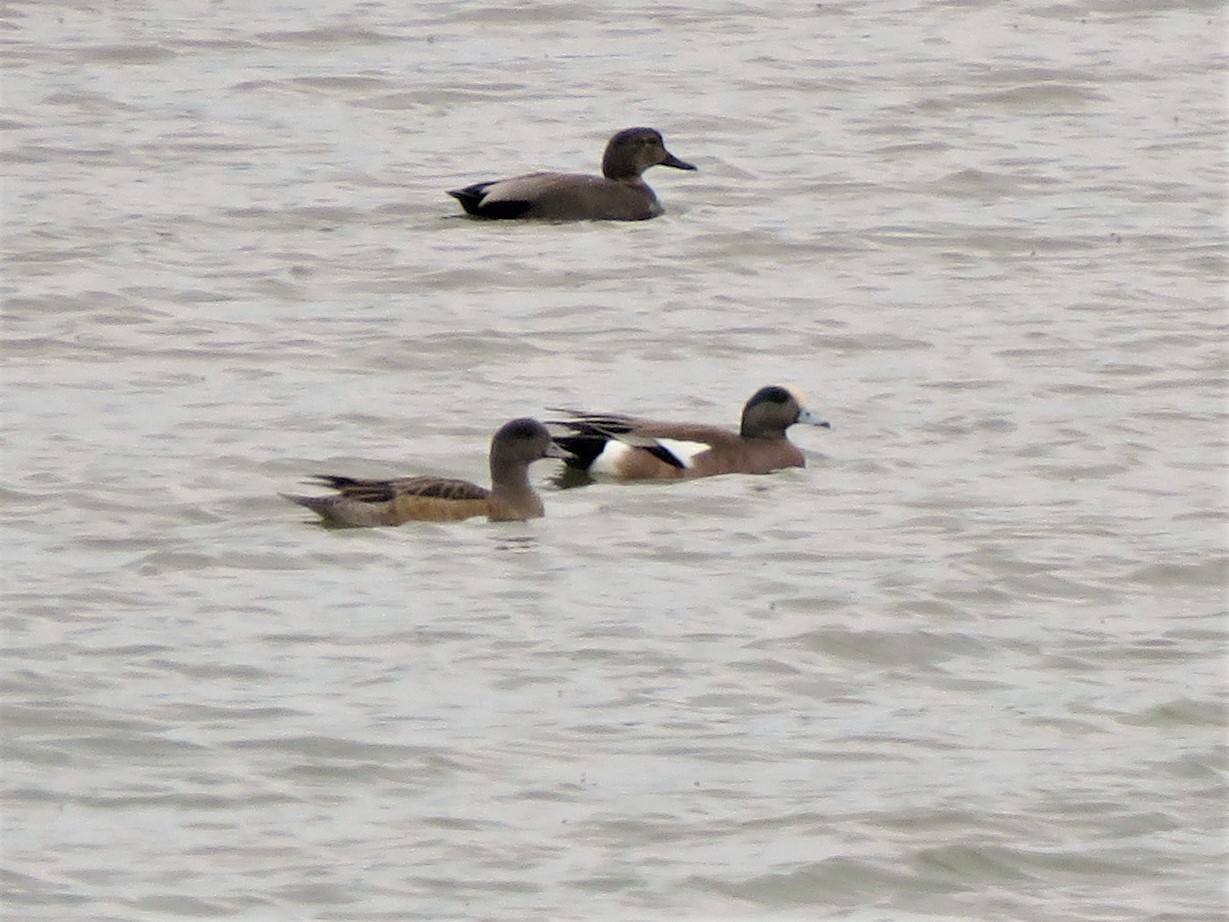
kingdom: Animalia
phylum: Chordata
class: Aves
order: Anseriformes
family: Anatidae
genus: Mareca
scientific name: Mareca americana
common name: American wigeon
